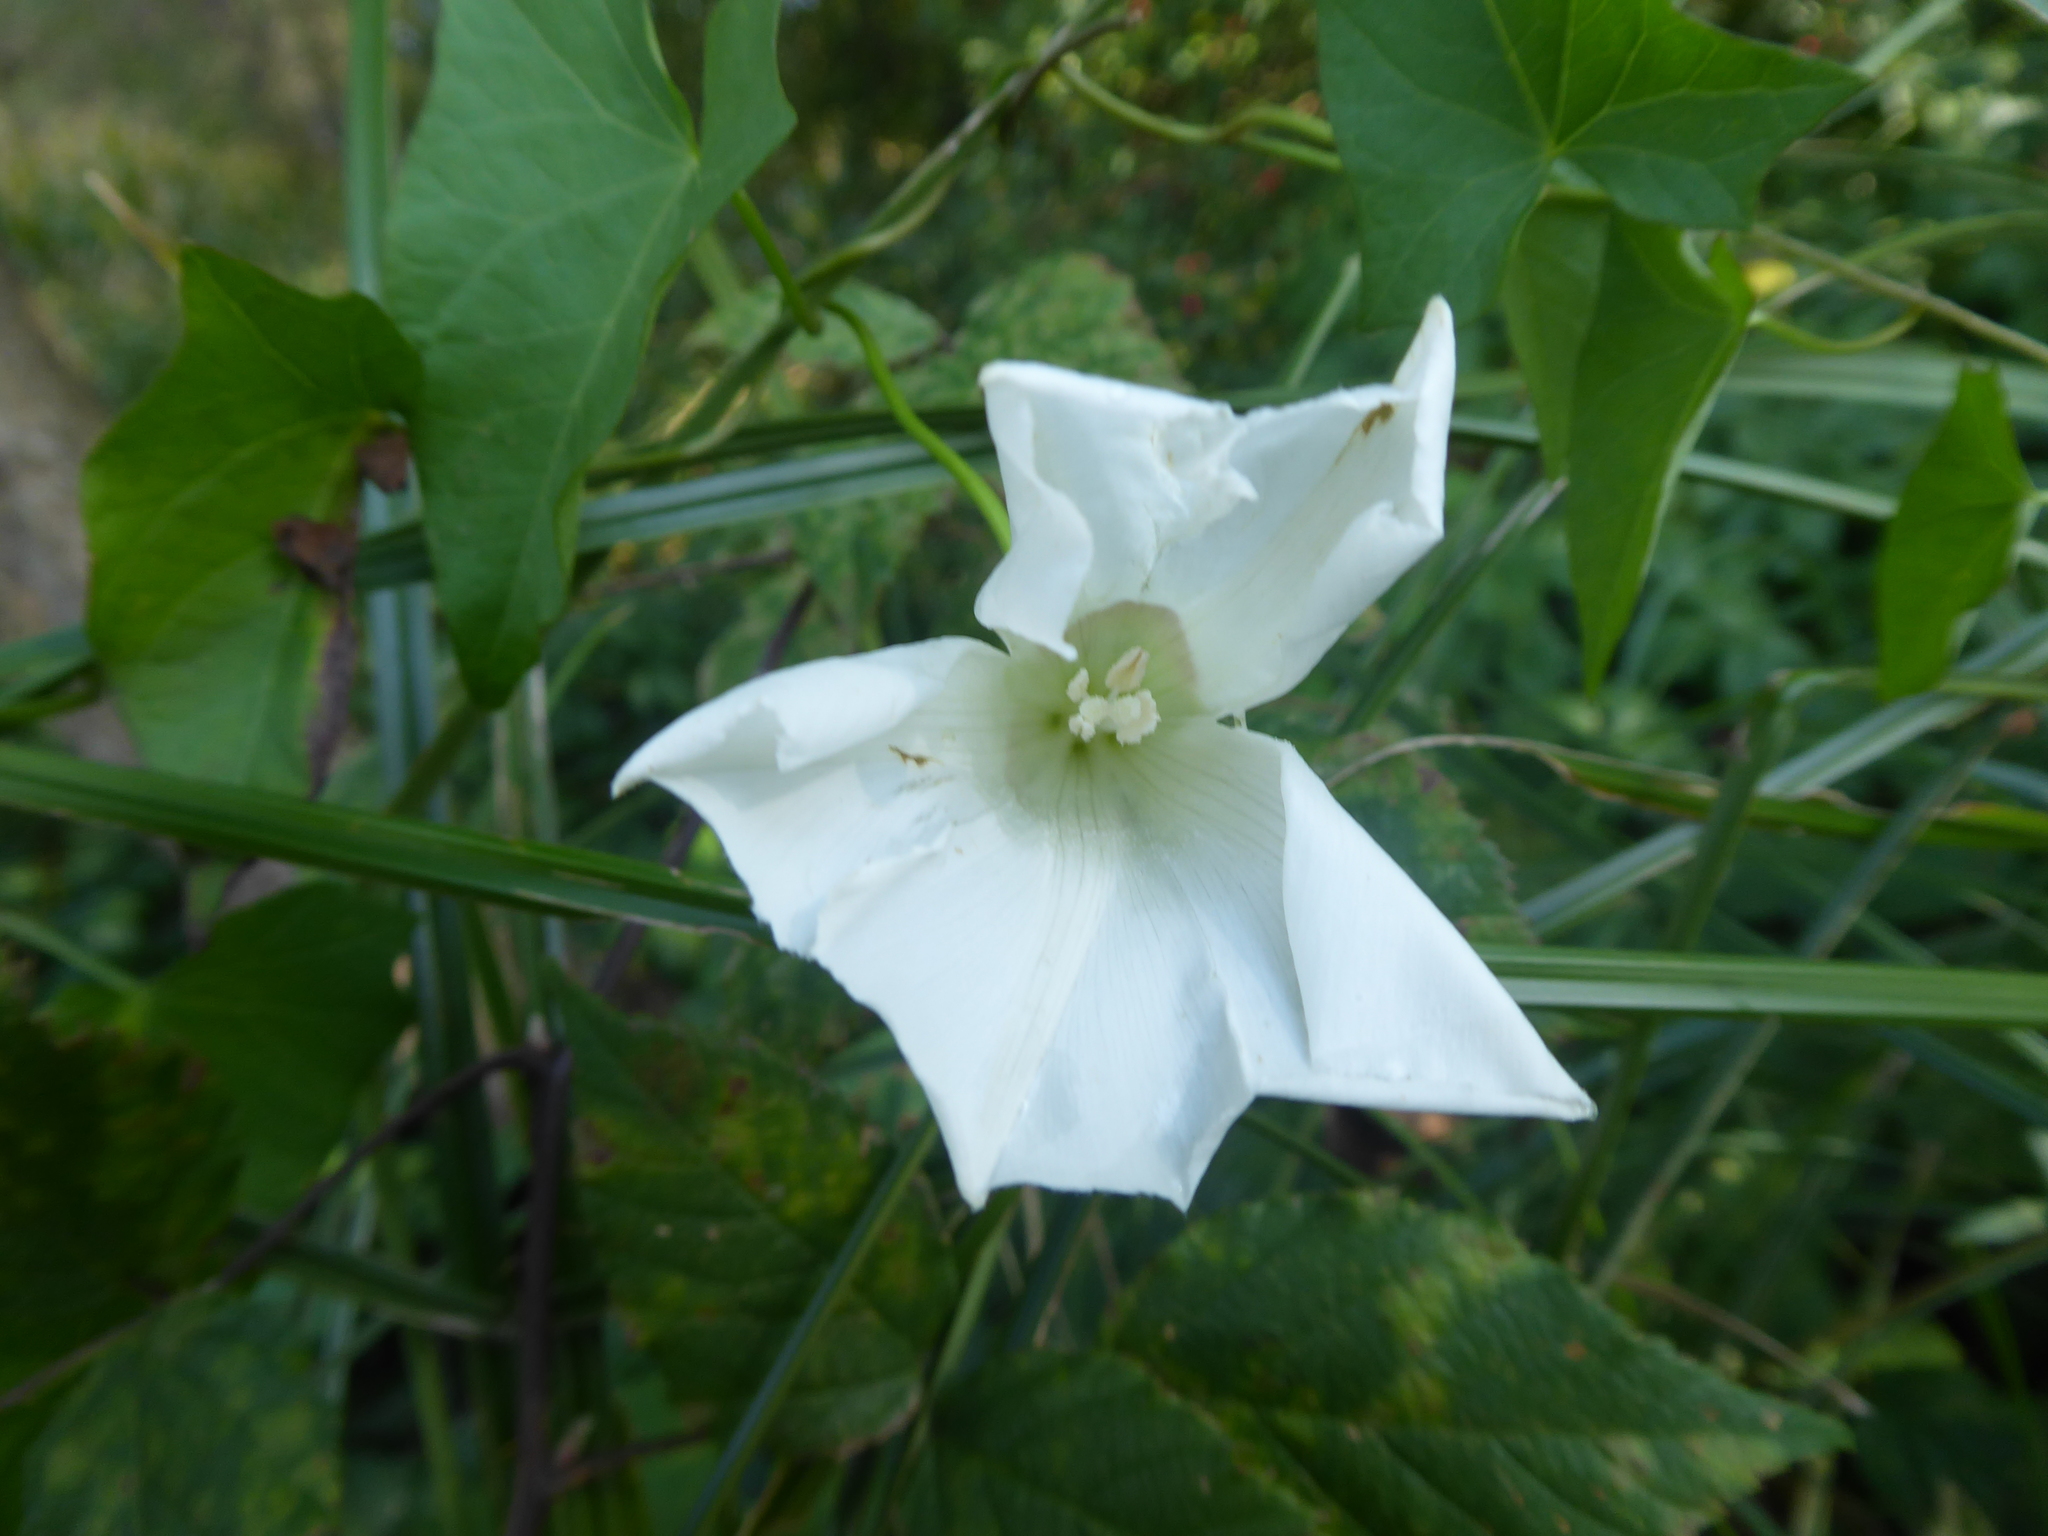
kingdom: Plantae
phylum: Tracheophyta
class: Magnoliopsida
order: Solanales
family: Convolvulaceae
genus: Calystegia
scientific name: Calystegia sepium
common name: Hedge bindweed
